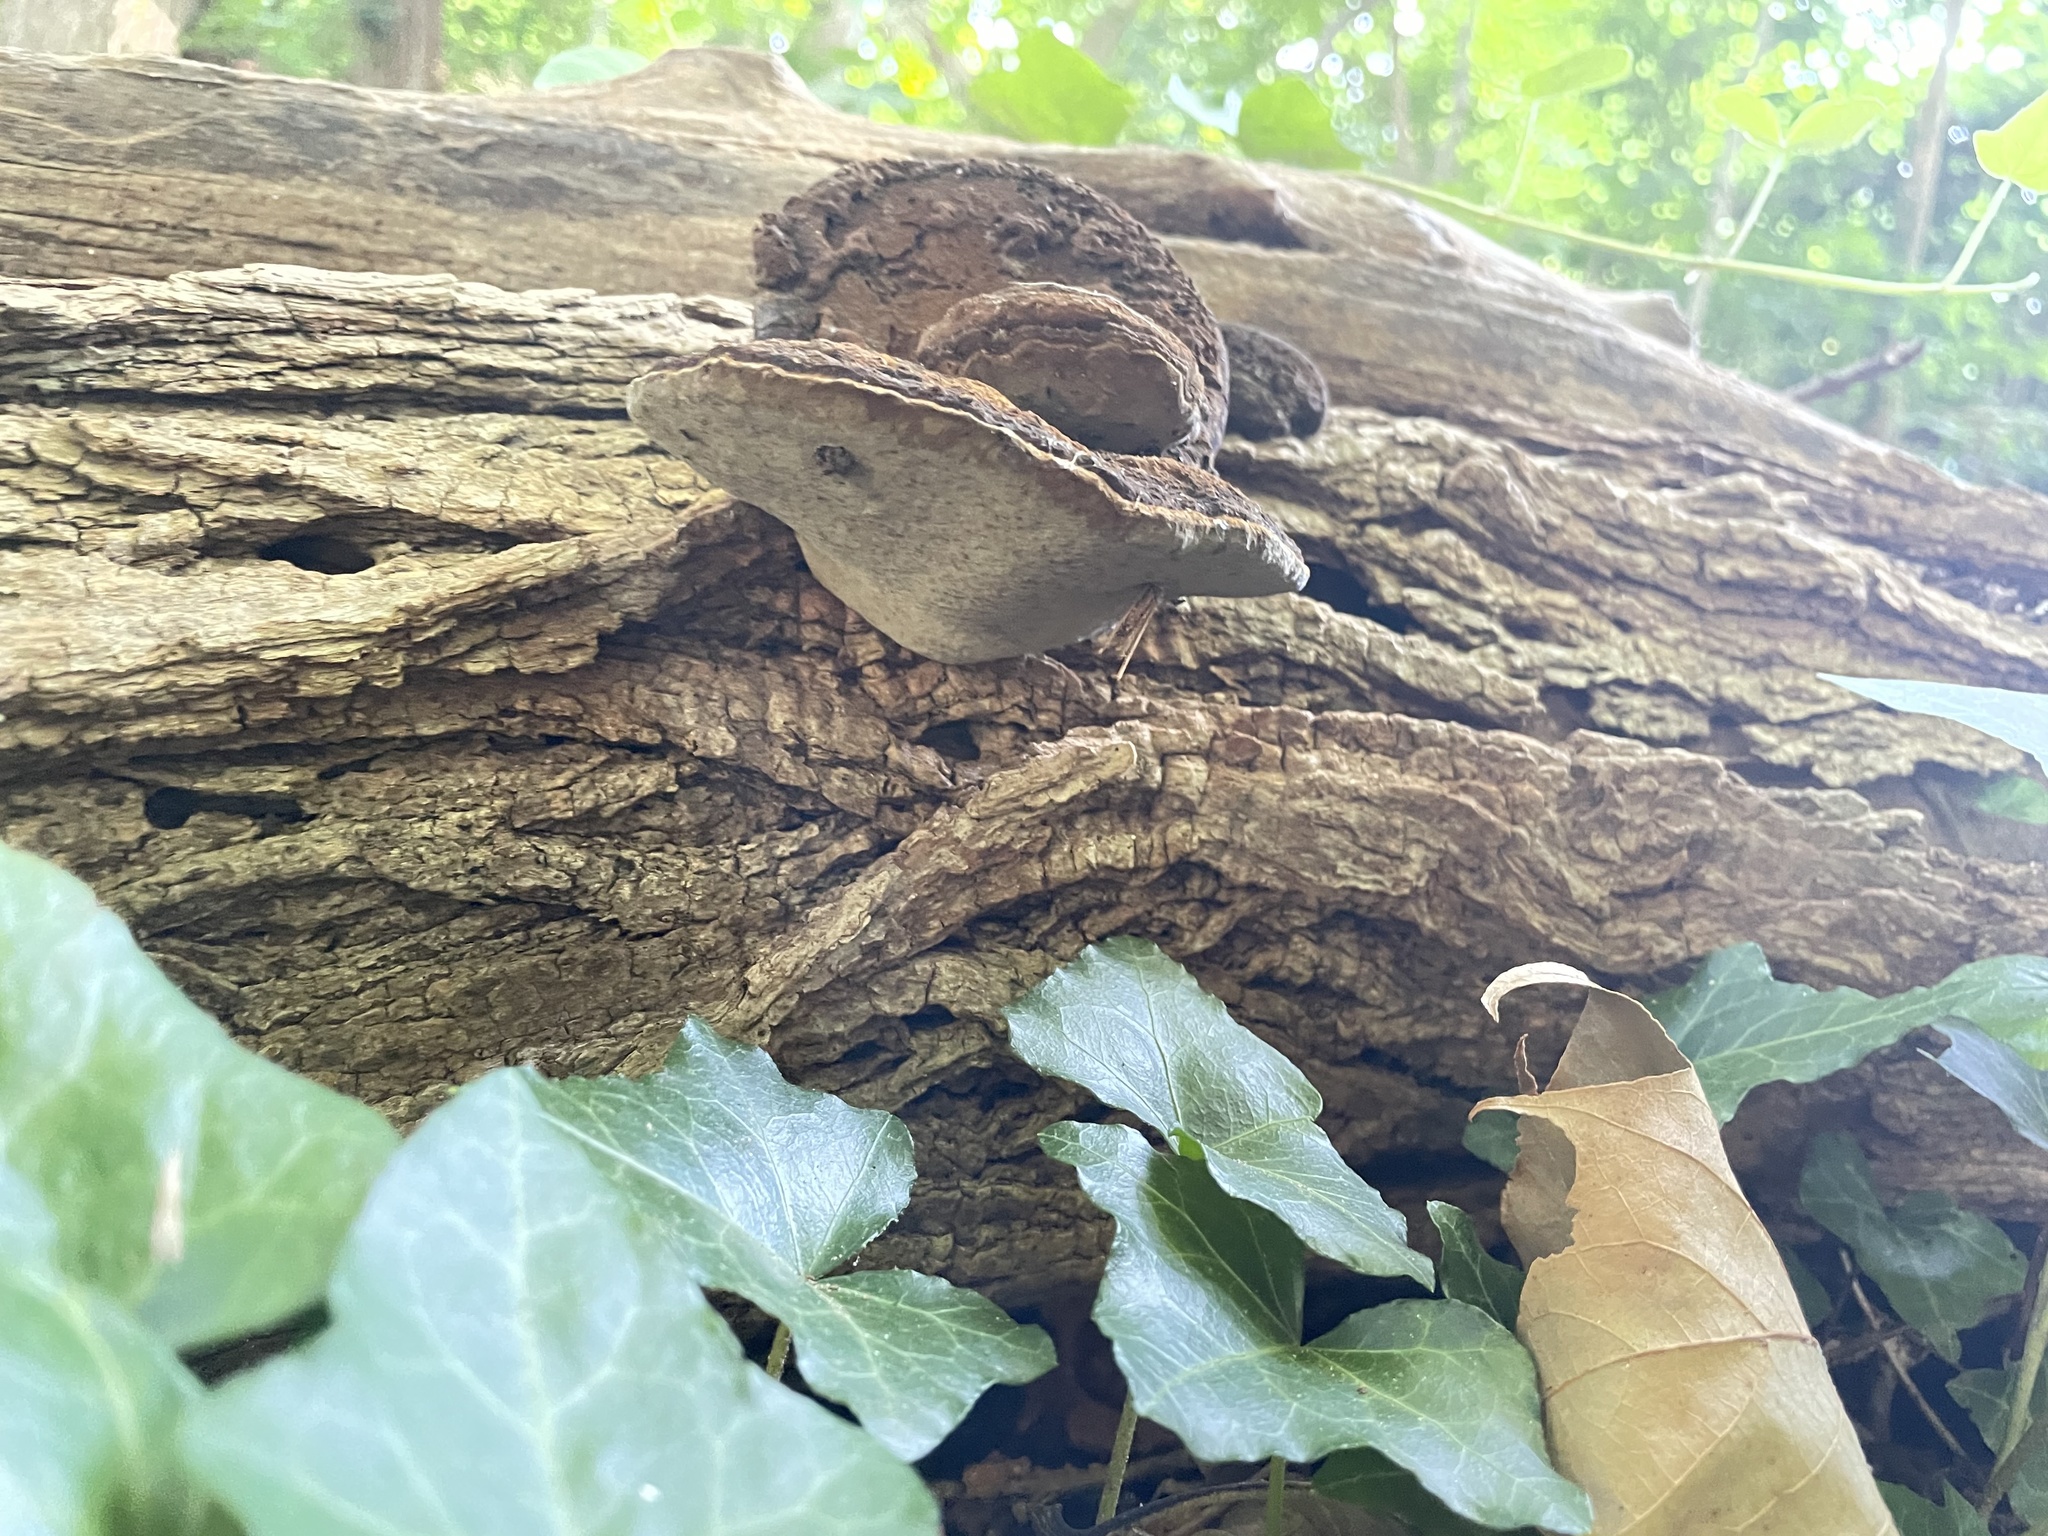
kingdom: Fungi
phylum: Basidiomycota
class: Agaricomycetes
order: Hymenochaetales
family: Hymenochaetaceae
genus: Phellinus
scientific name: Phellinus robiniae
